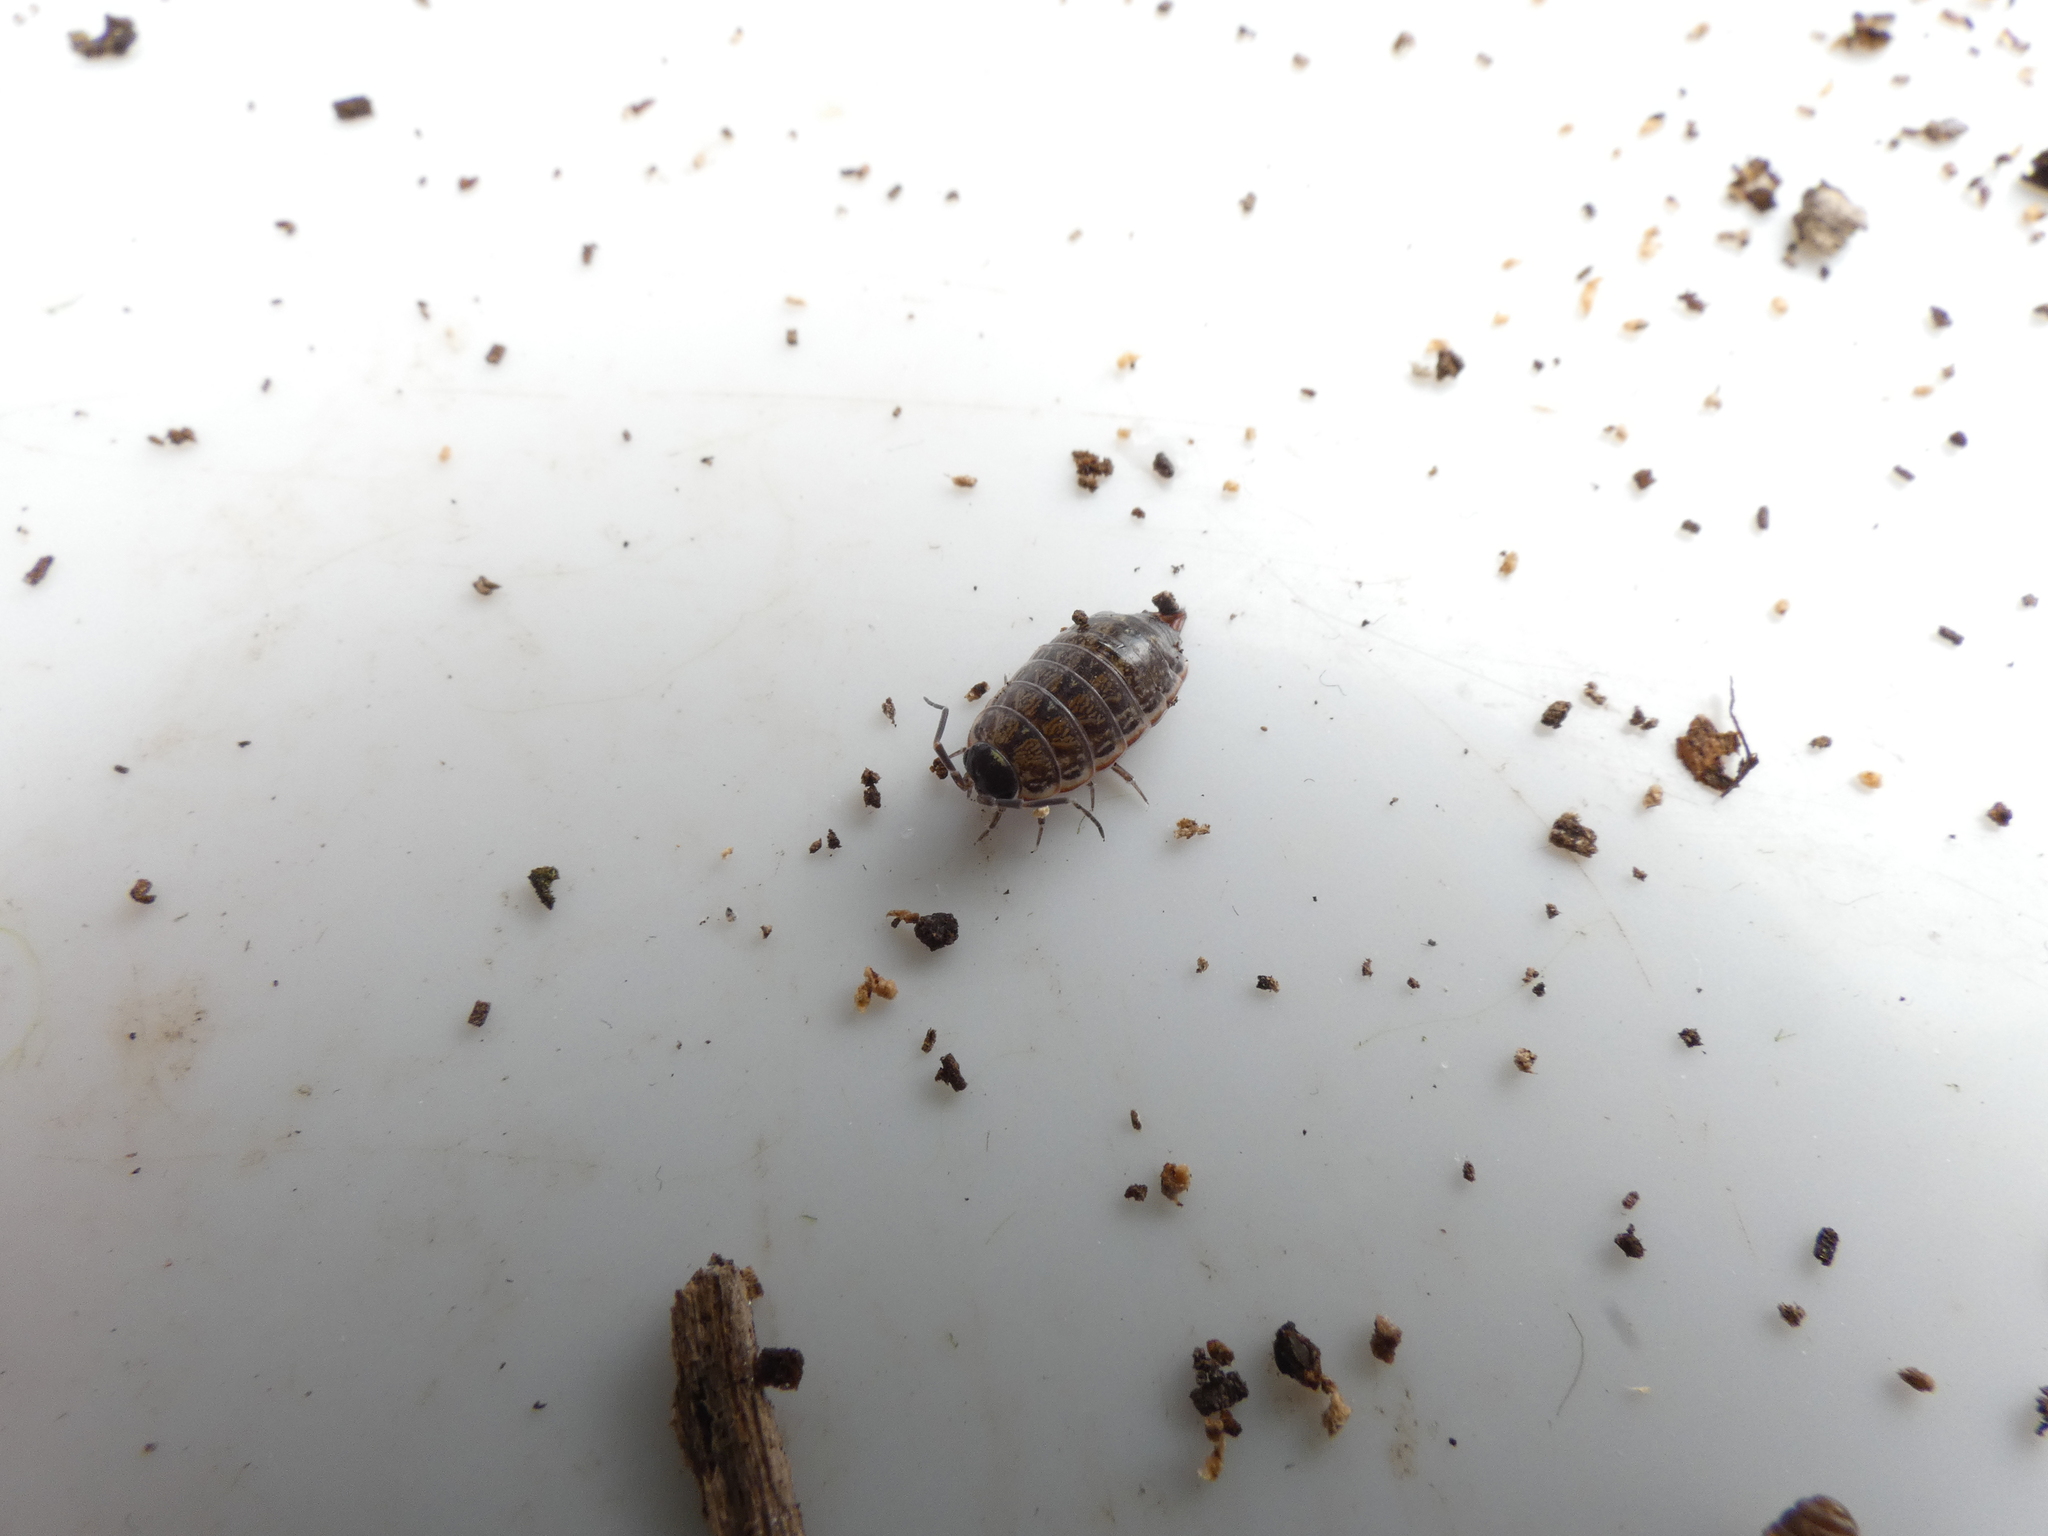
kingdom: Animalia
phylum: Arthropoda
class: Malacostraca
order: Isopoda
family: Philosciidae
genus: Philoscia
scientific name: Philoscia muscorum
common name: Common striped woodlouse
